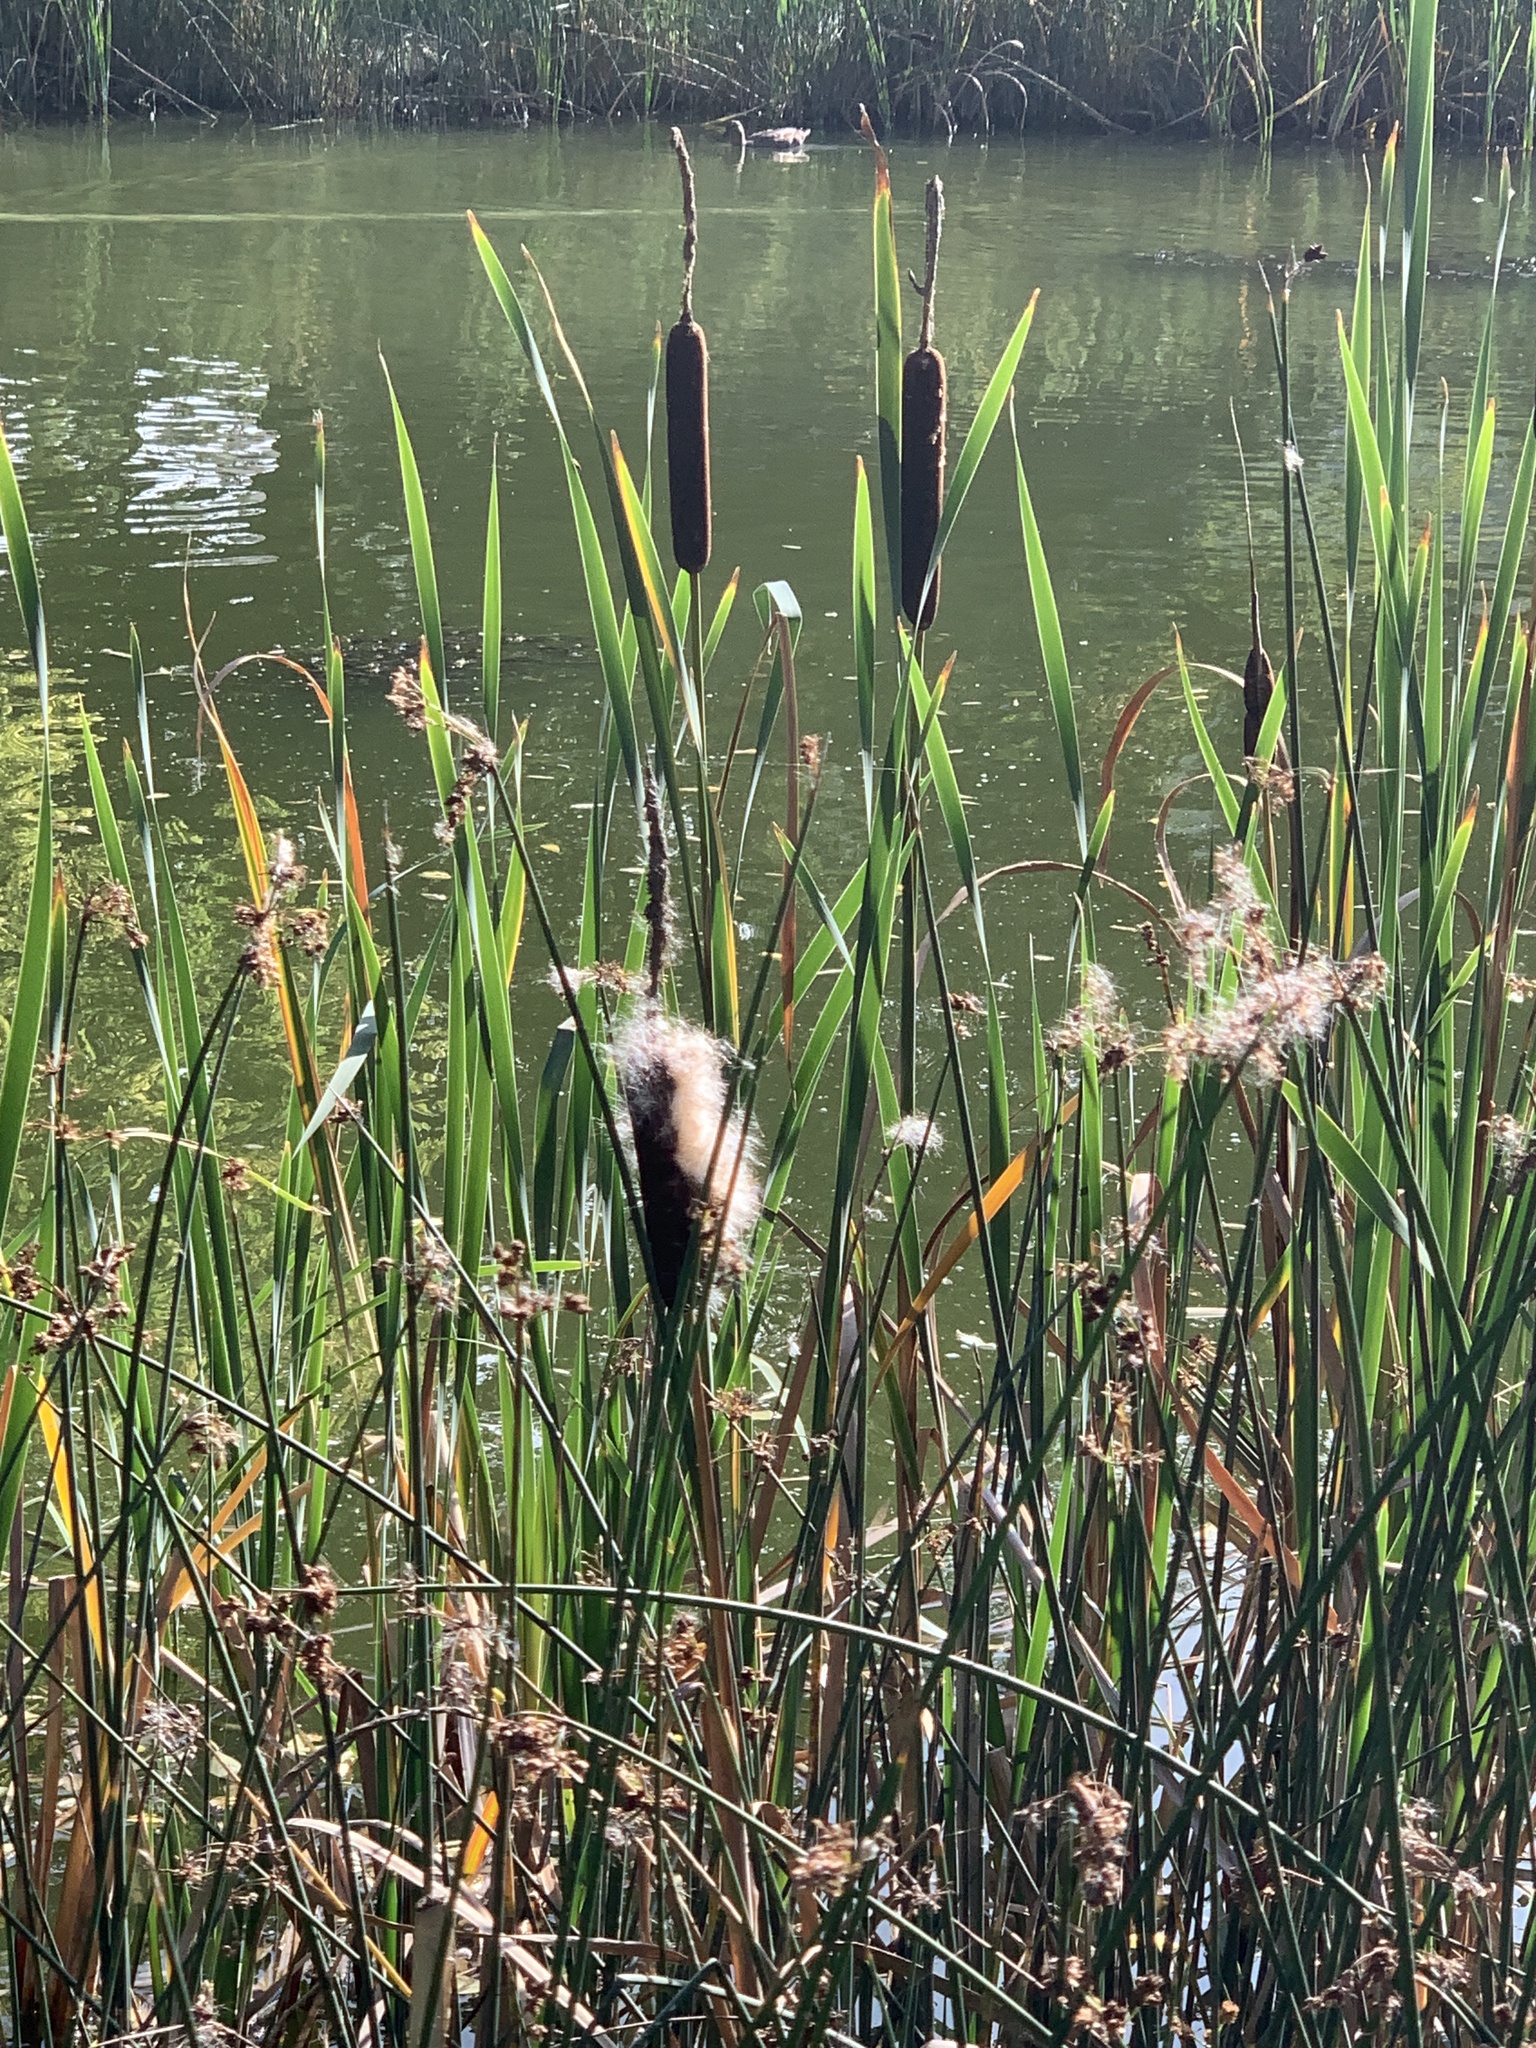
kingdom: Plantae
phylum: Tracheophyta
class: Liliopsida
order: Poales
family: Typhaceae
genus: Typha
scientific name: Typha latifolia
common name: Broadleaf cattail
